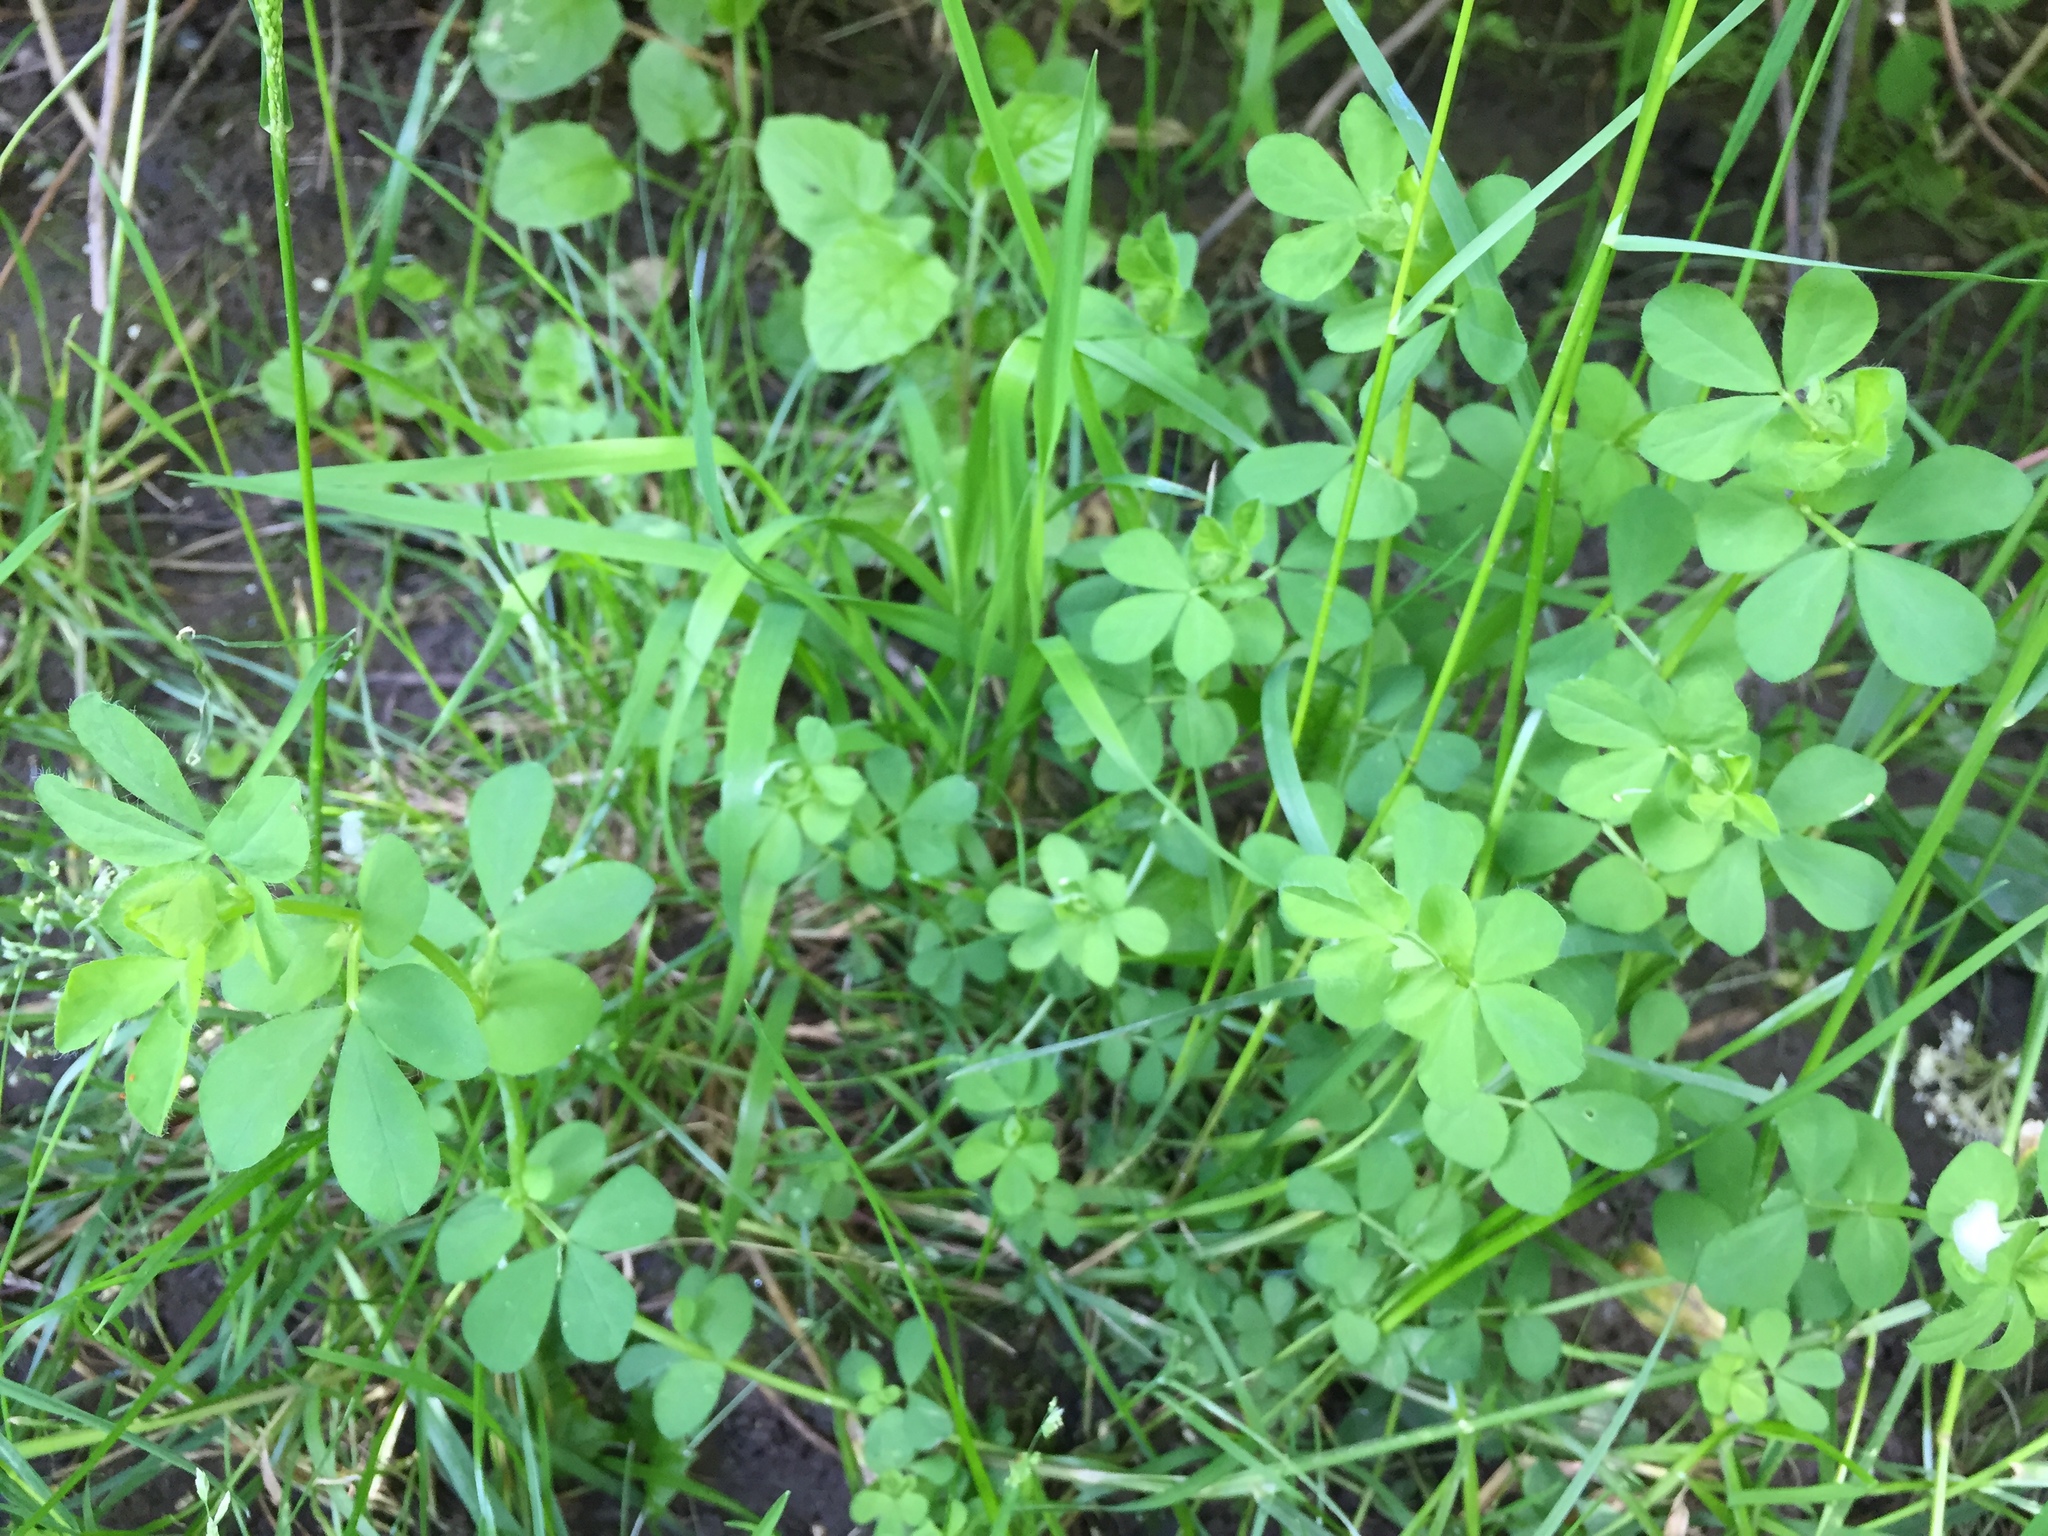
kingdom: Plantae
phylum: Tracheophyta
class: Magnoliopsida
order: Fabales
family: Fabaceae
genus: Lotus
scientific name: Lotus pedunculatus
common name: Greater birdsfoot-trefoil
